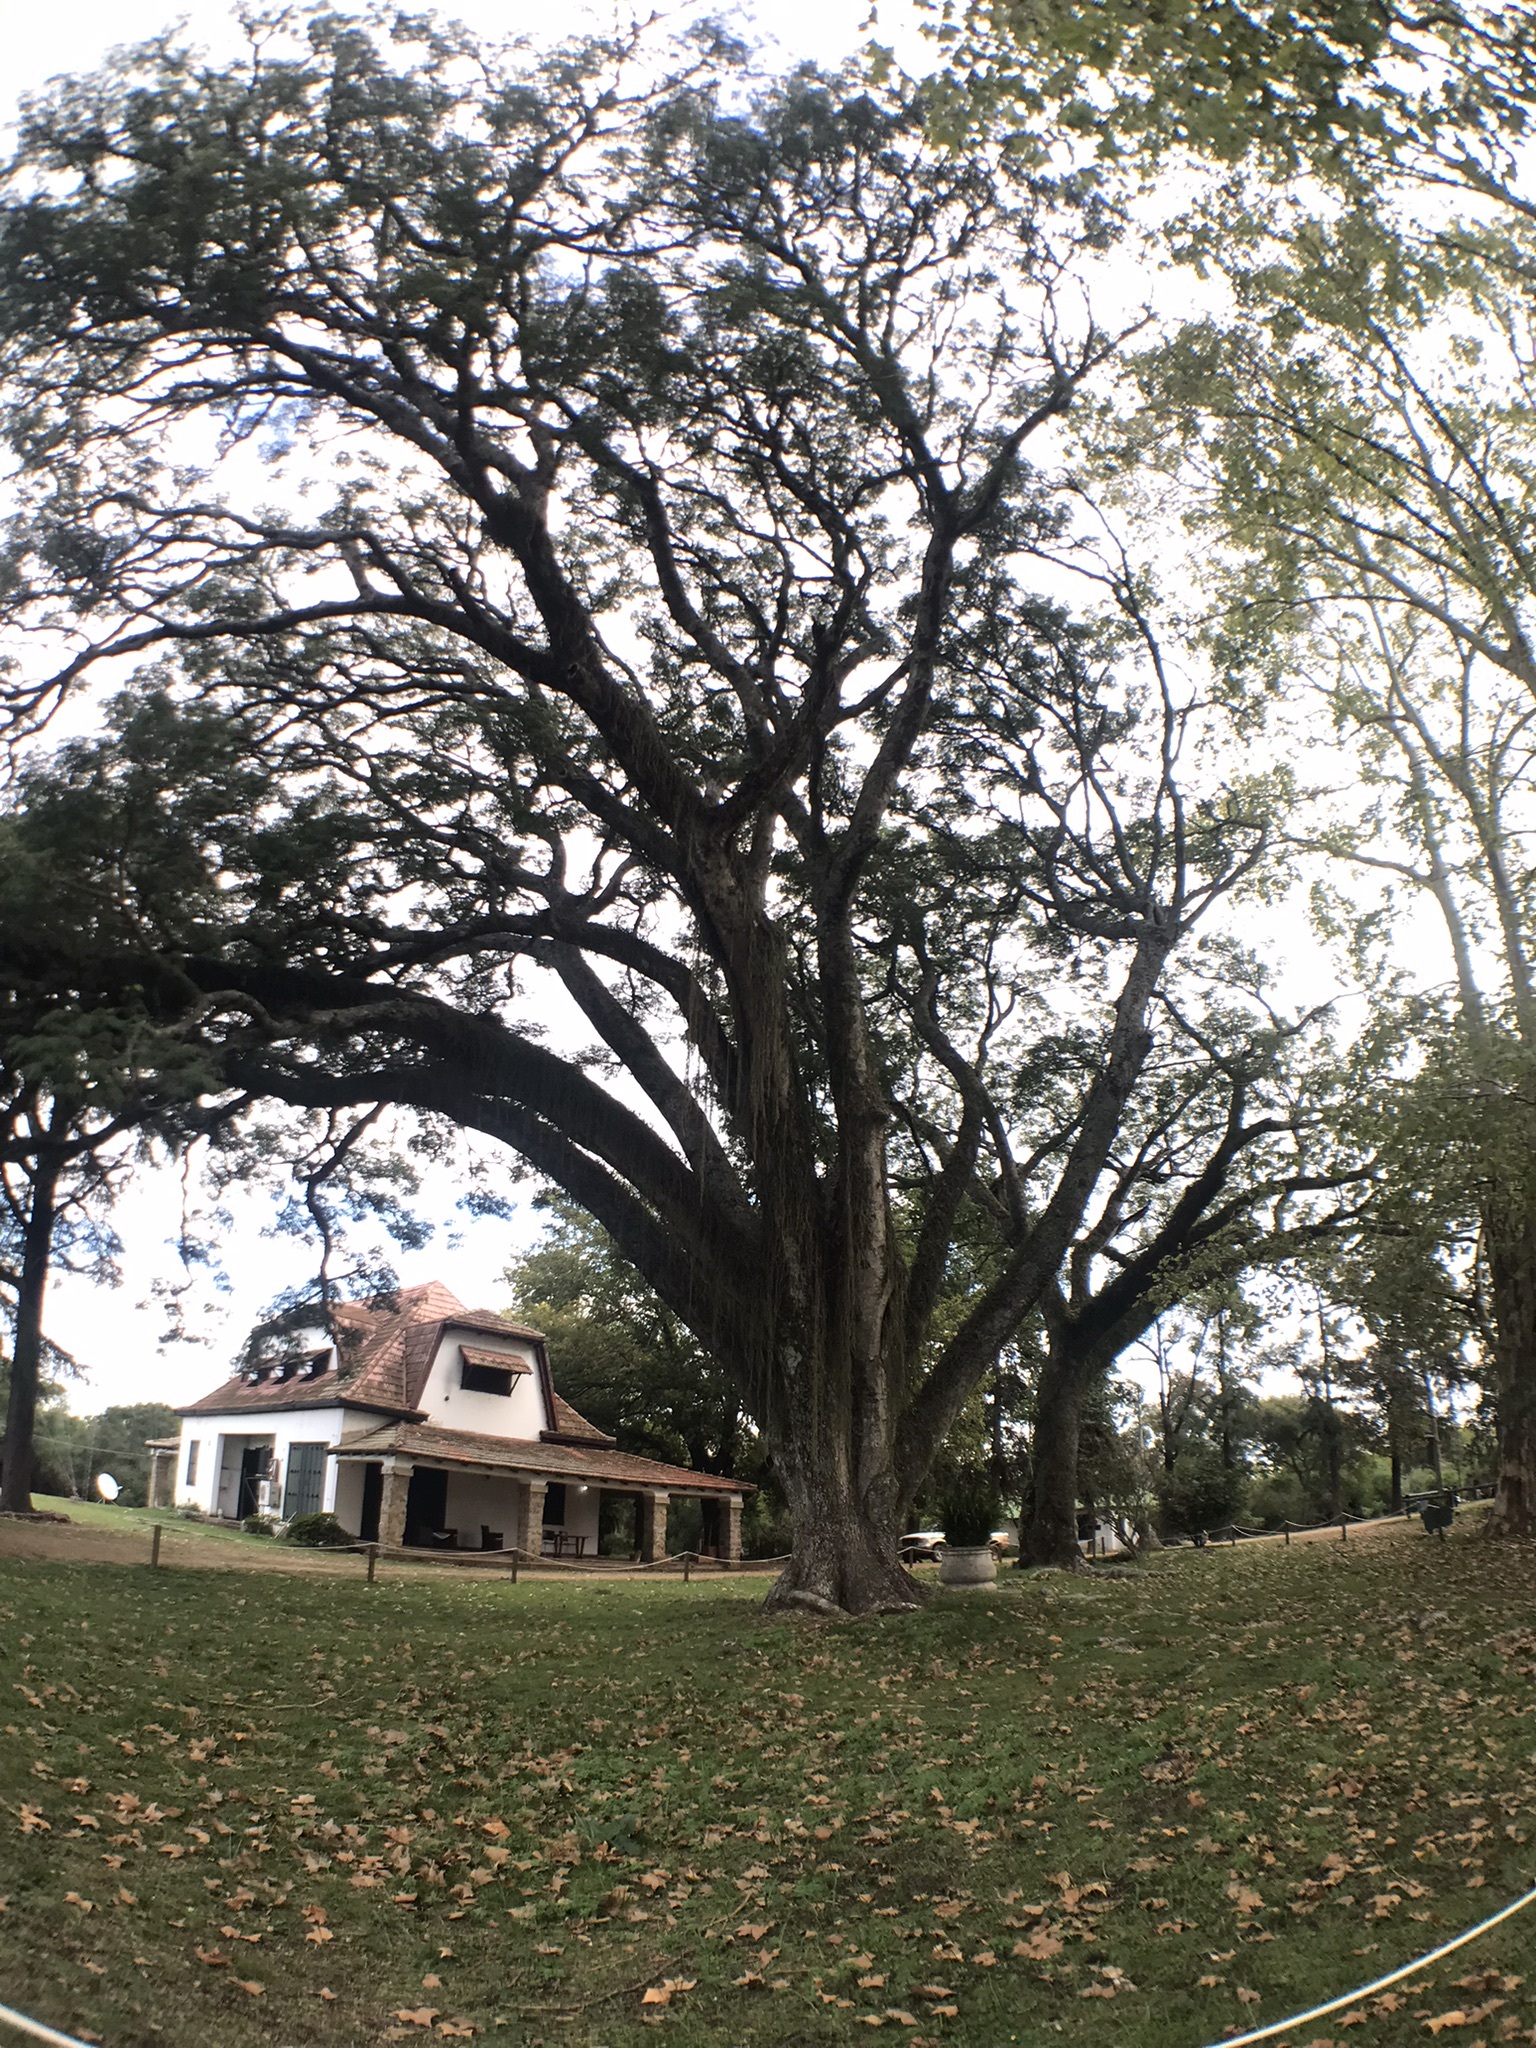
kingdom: Plantae
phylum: Tracheophyta
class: Magnoliopsida
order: Fabales
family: Fabaceae
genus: Enterolobium
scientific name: Enterolobium contortisiliquum
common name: Pacara earpod tree
